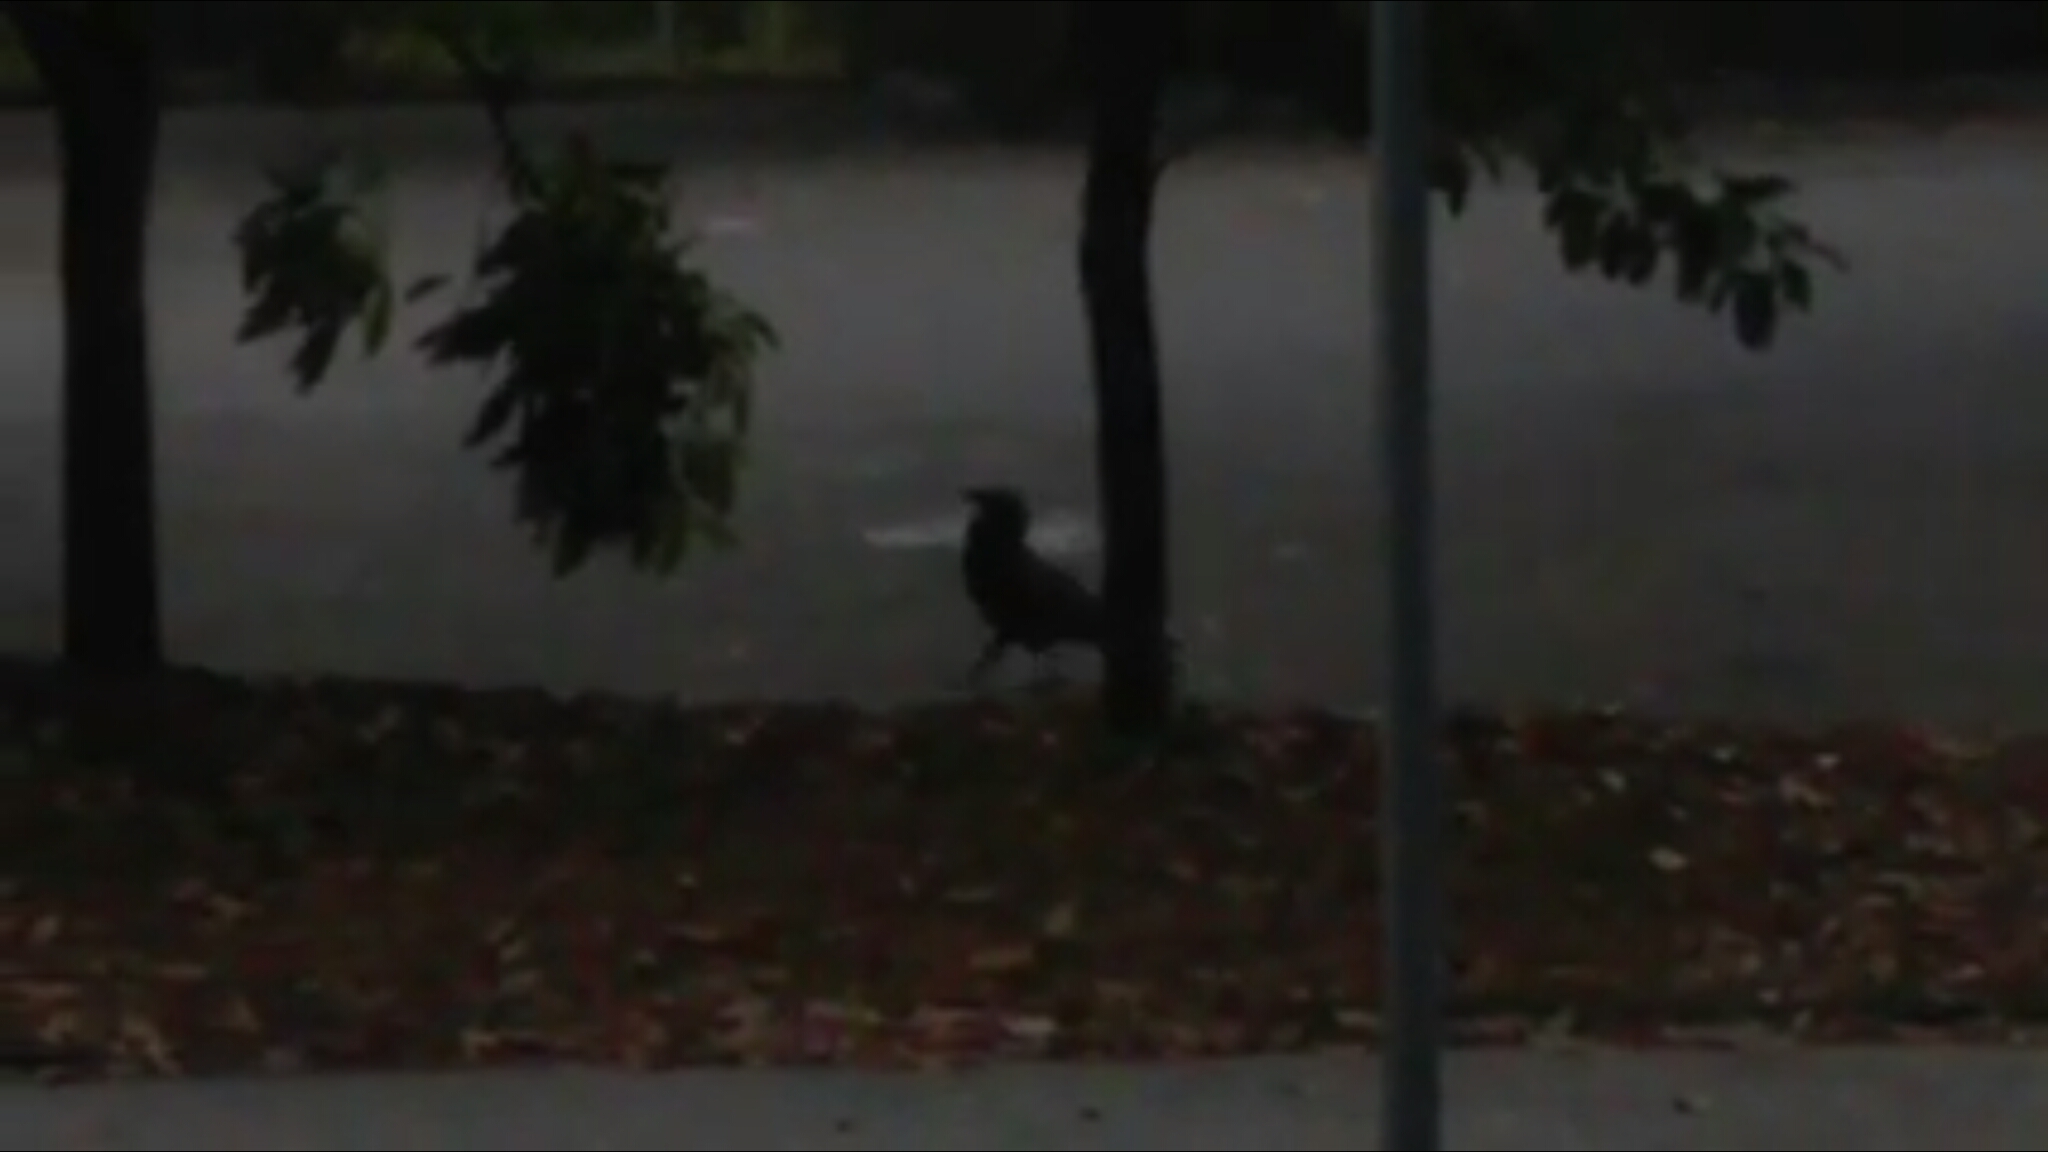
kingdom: Animalia
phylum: Chordata
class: Aves
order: Passeriformes
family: Corvidae
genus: Corvus
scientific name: Corvus coronoides
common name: Australian raven
